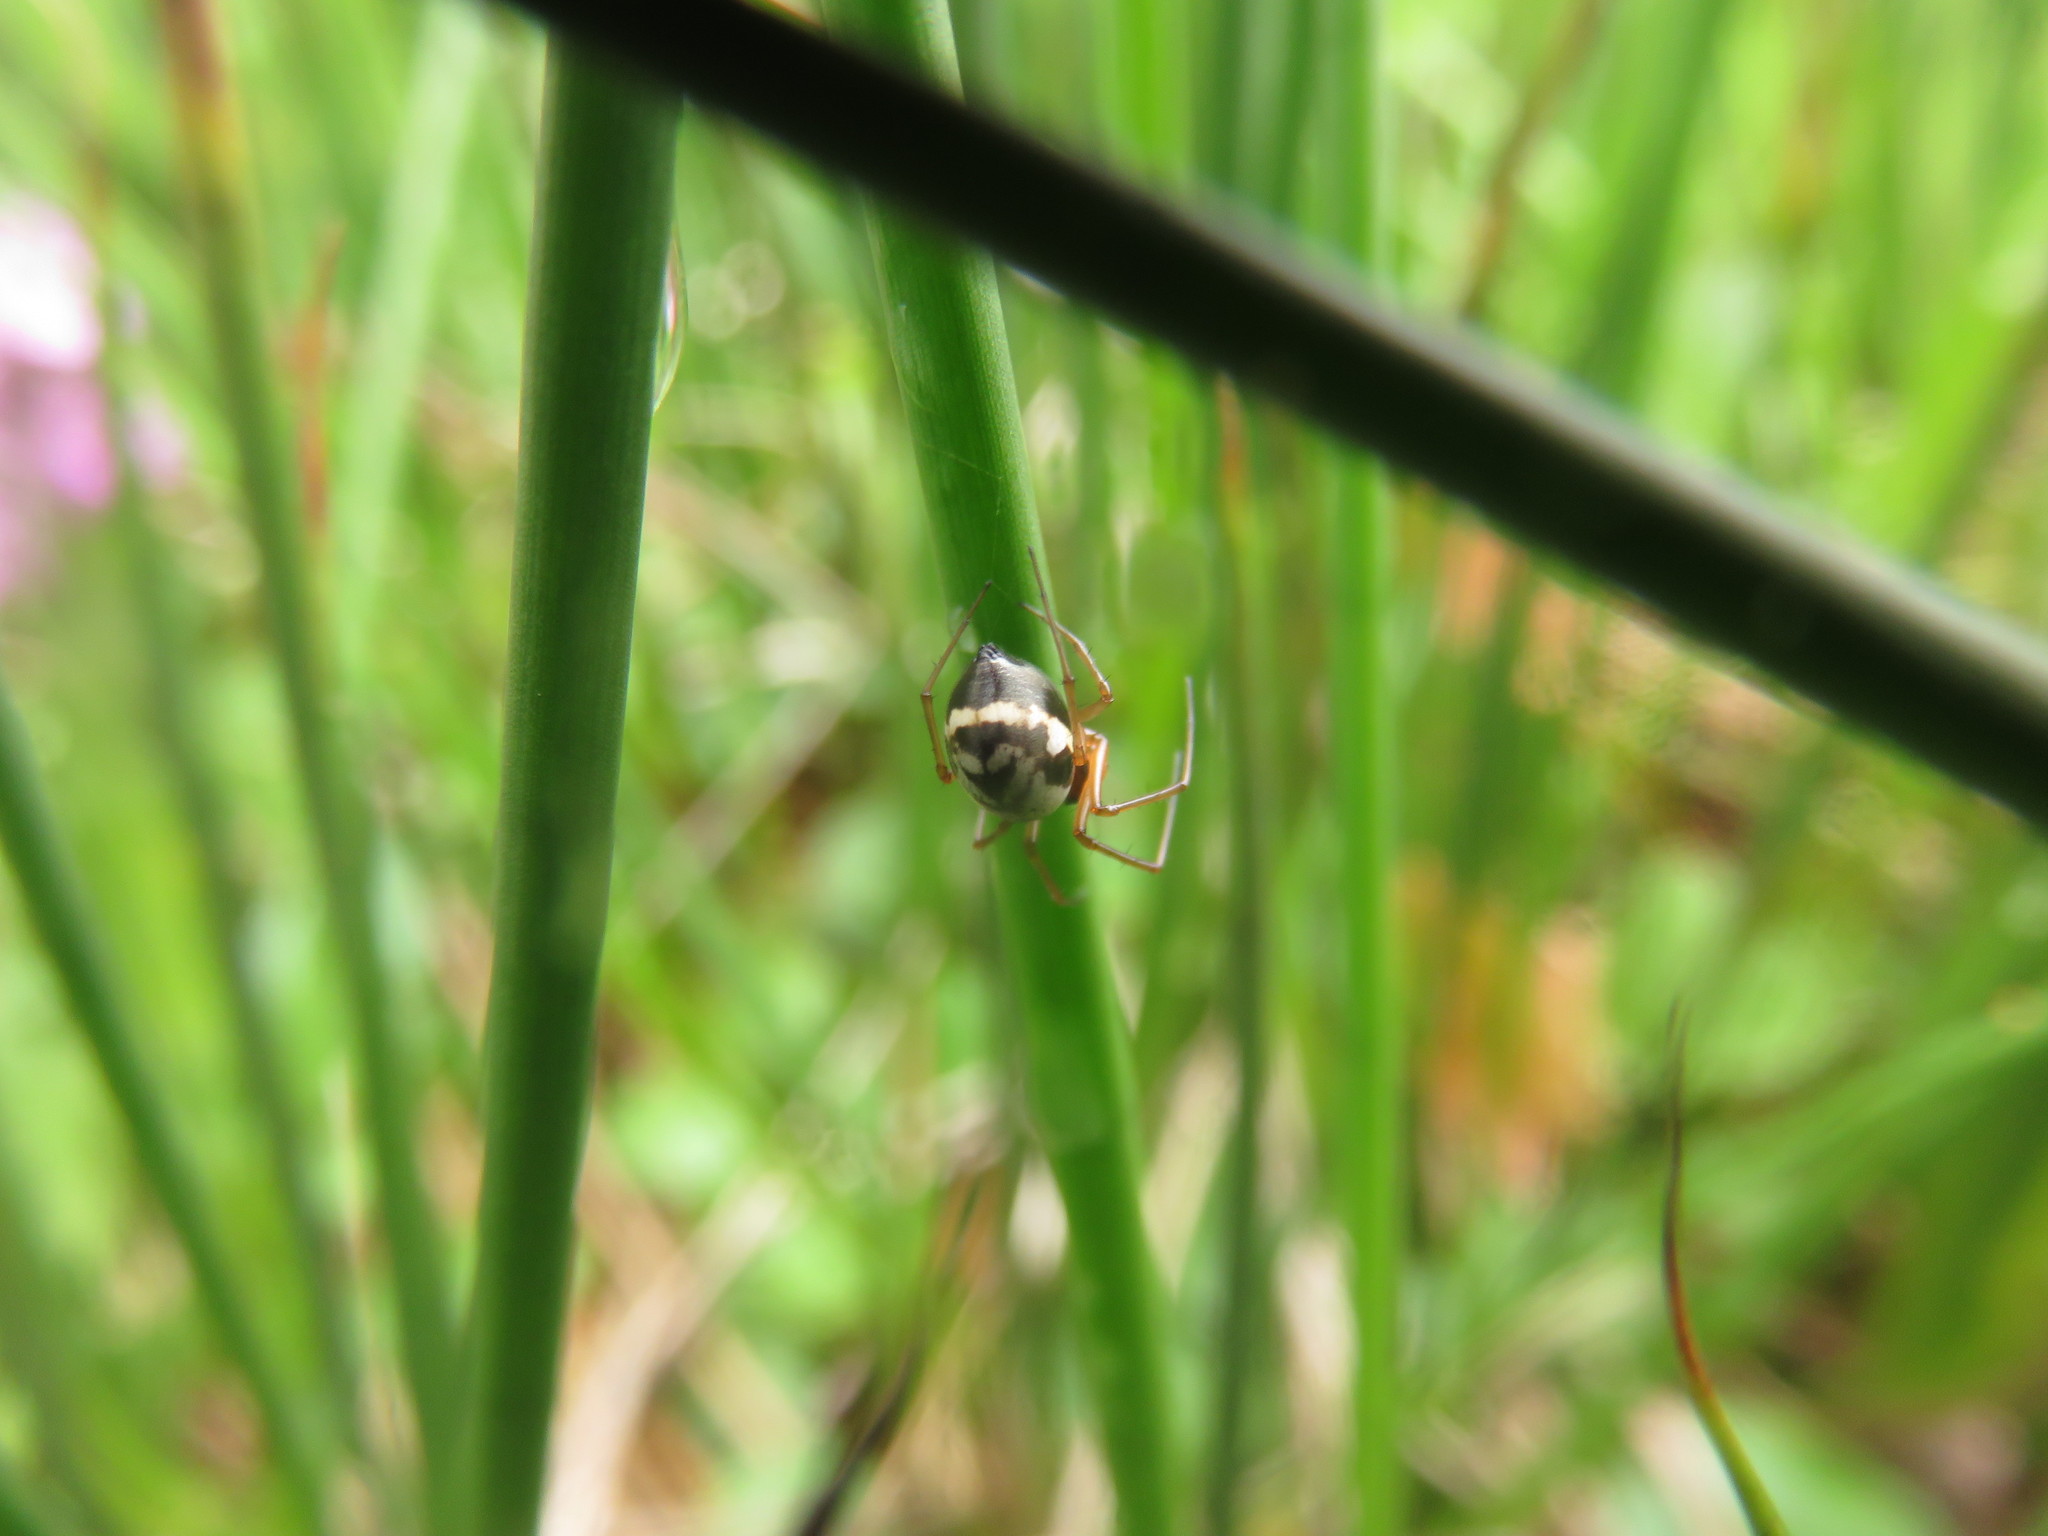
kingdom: Animalia
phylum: Arthropoda
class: Arachnida
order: Araneae
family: Linyphiidae
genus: Microlinyphia
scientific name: Microlinyphia pusilla
